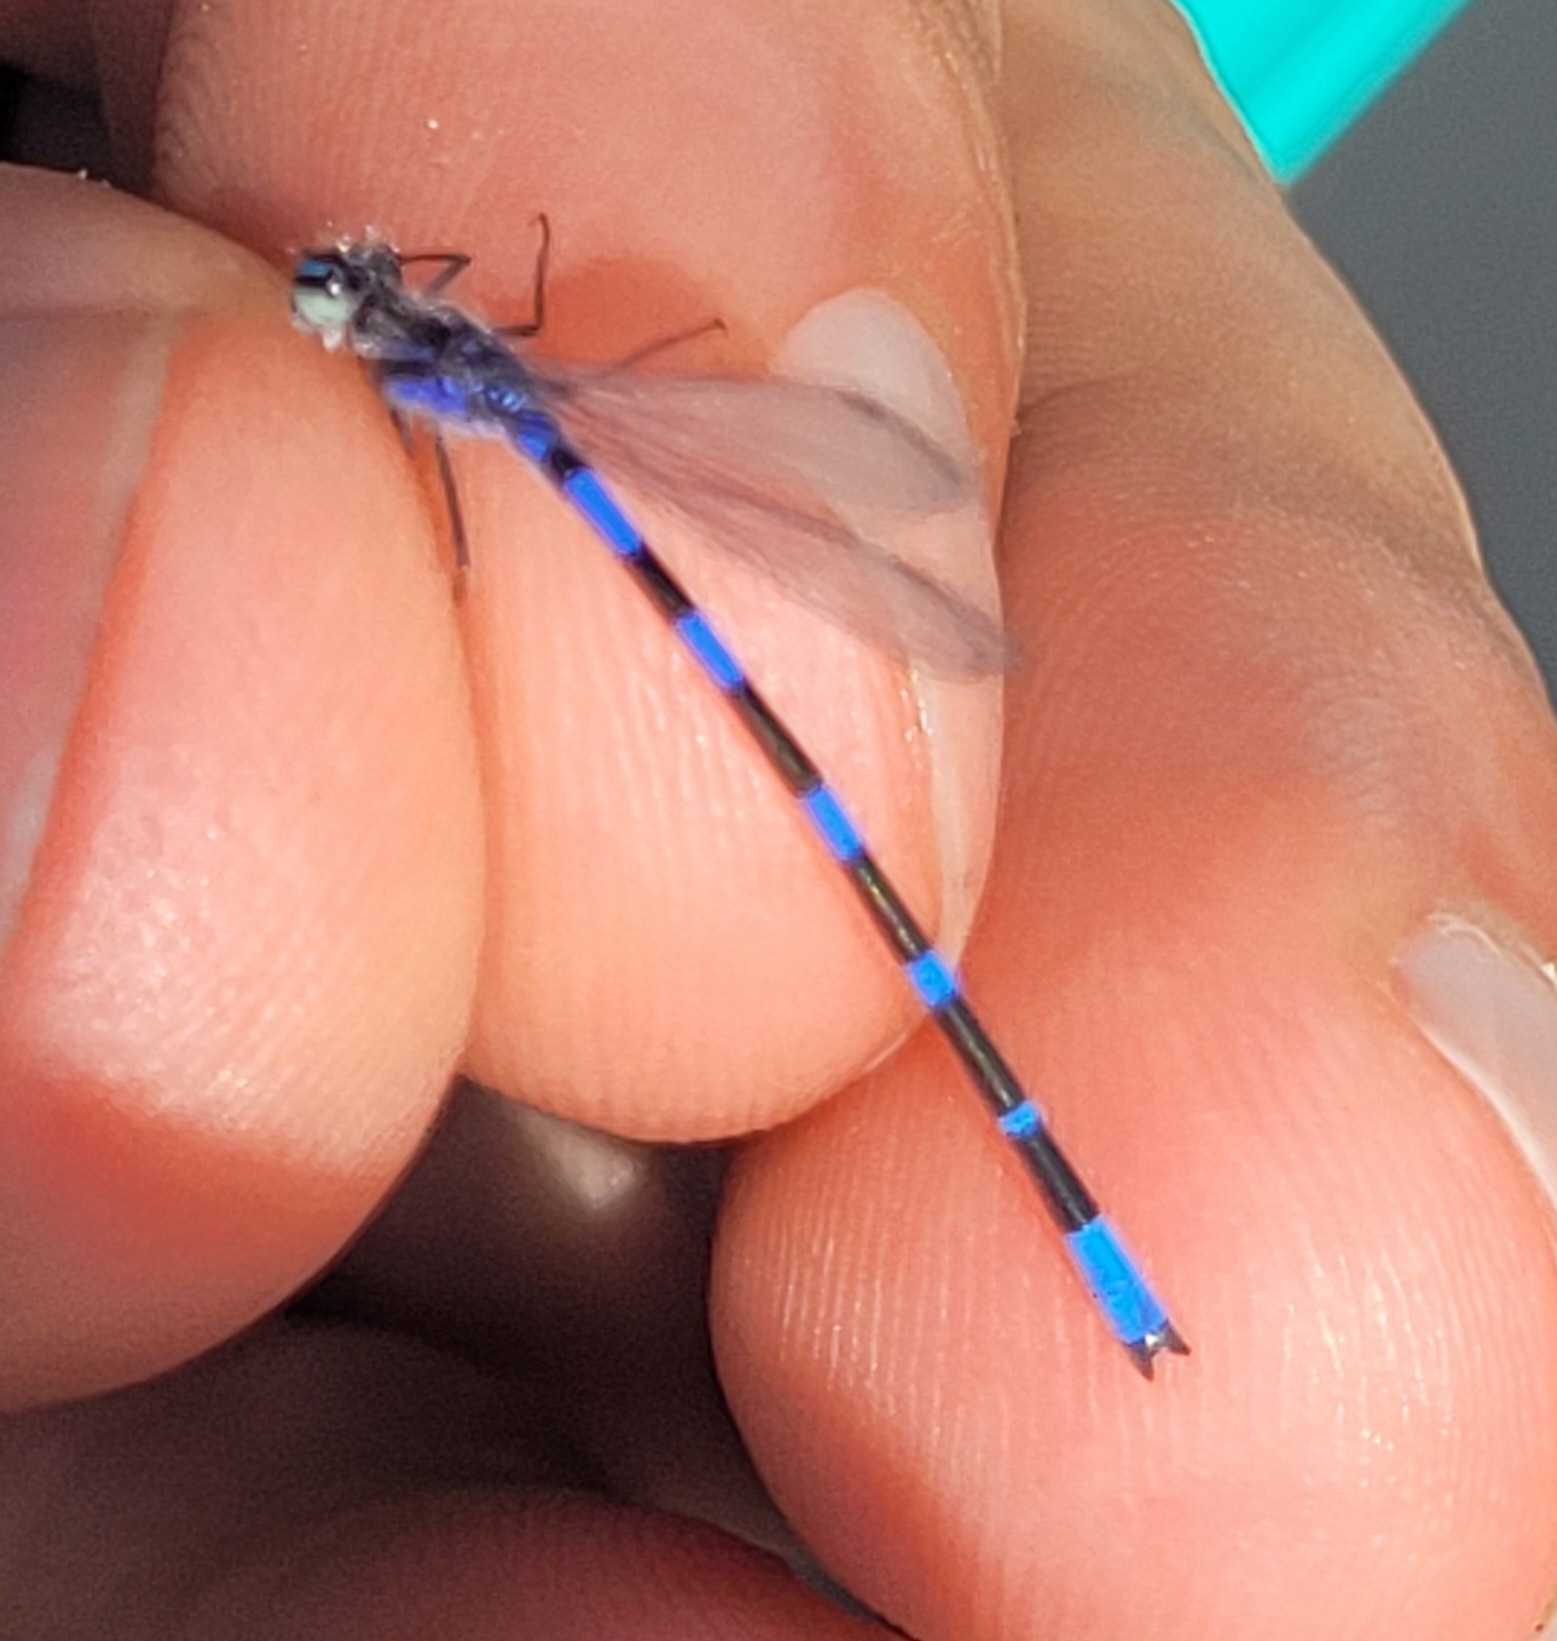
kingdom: Animalia
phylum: Arthropoda
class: Insecta
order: Odonata
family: Coenagrionidae
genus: Enallagma
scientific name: Enallagma minusculum
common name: Little bluet
